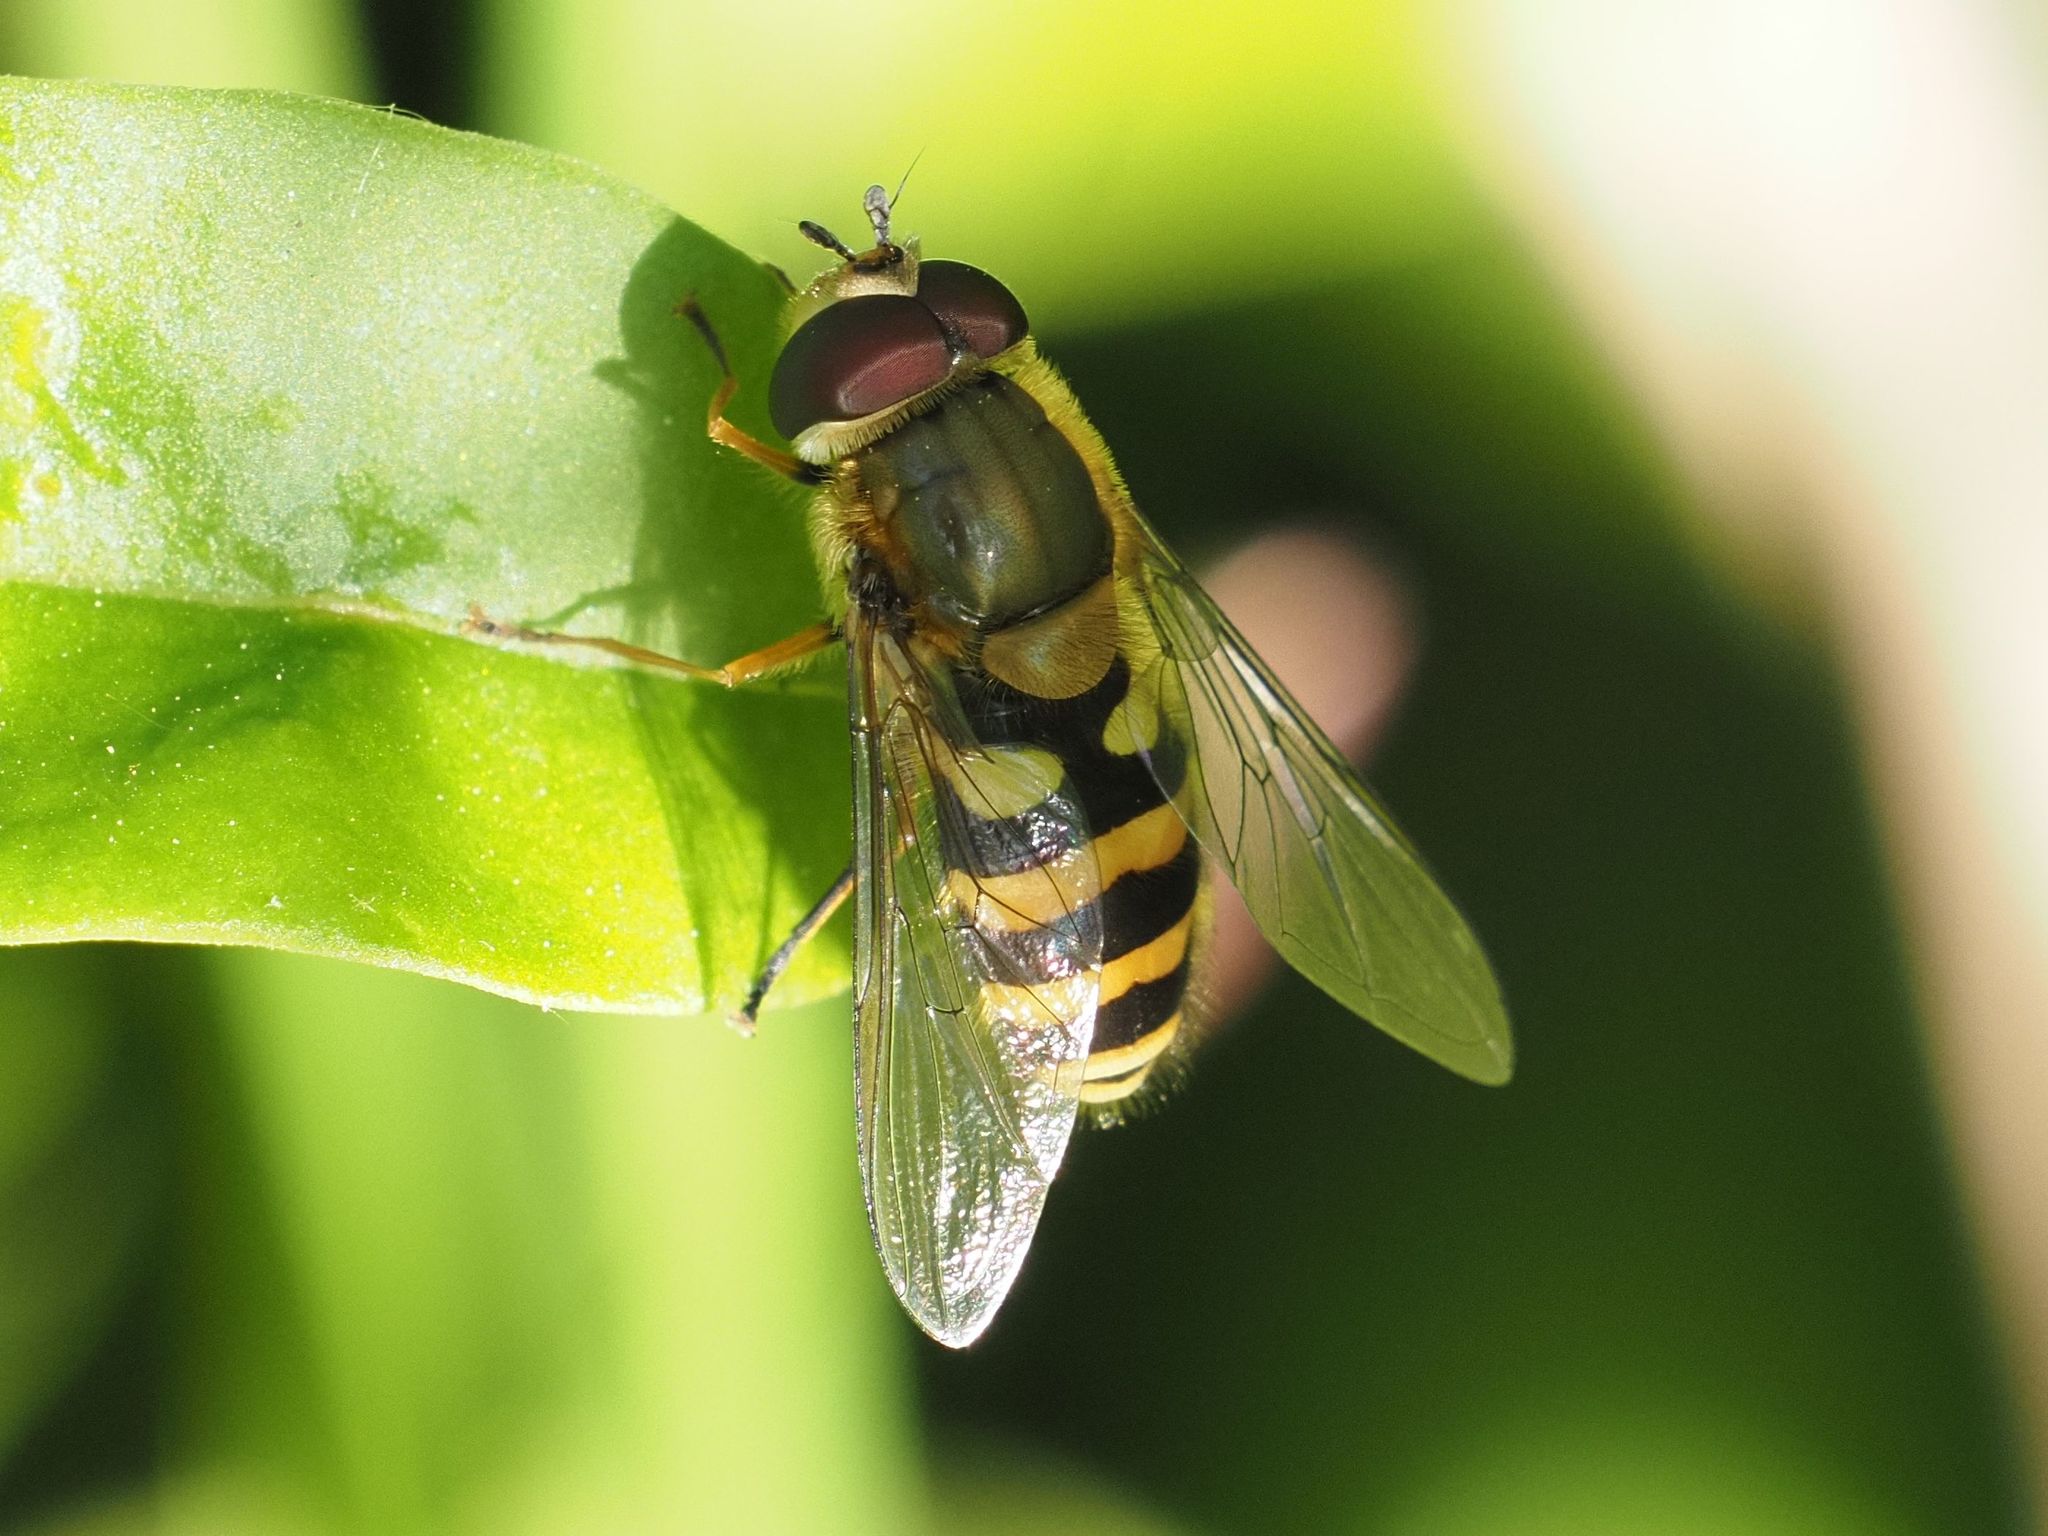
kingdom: Animalia
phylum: Arthropoda
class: Insecta
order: Diptera
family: Syrphidae
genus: Syrphus
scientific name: Syrphus
